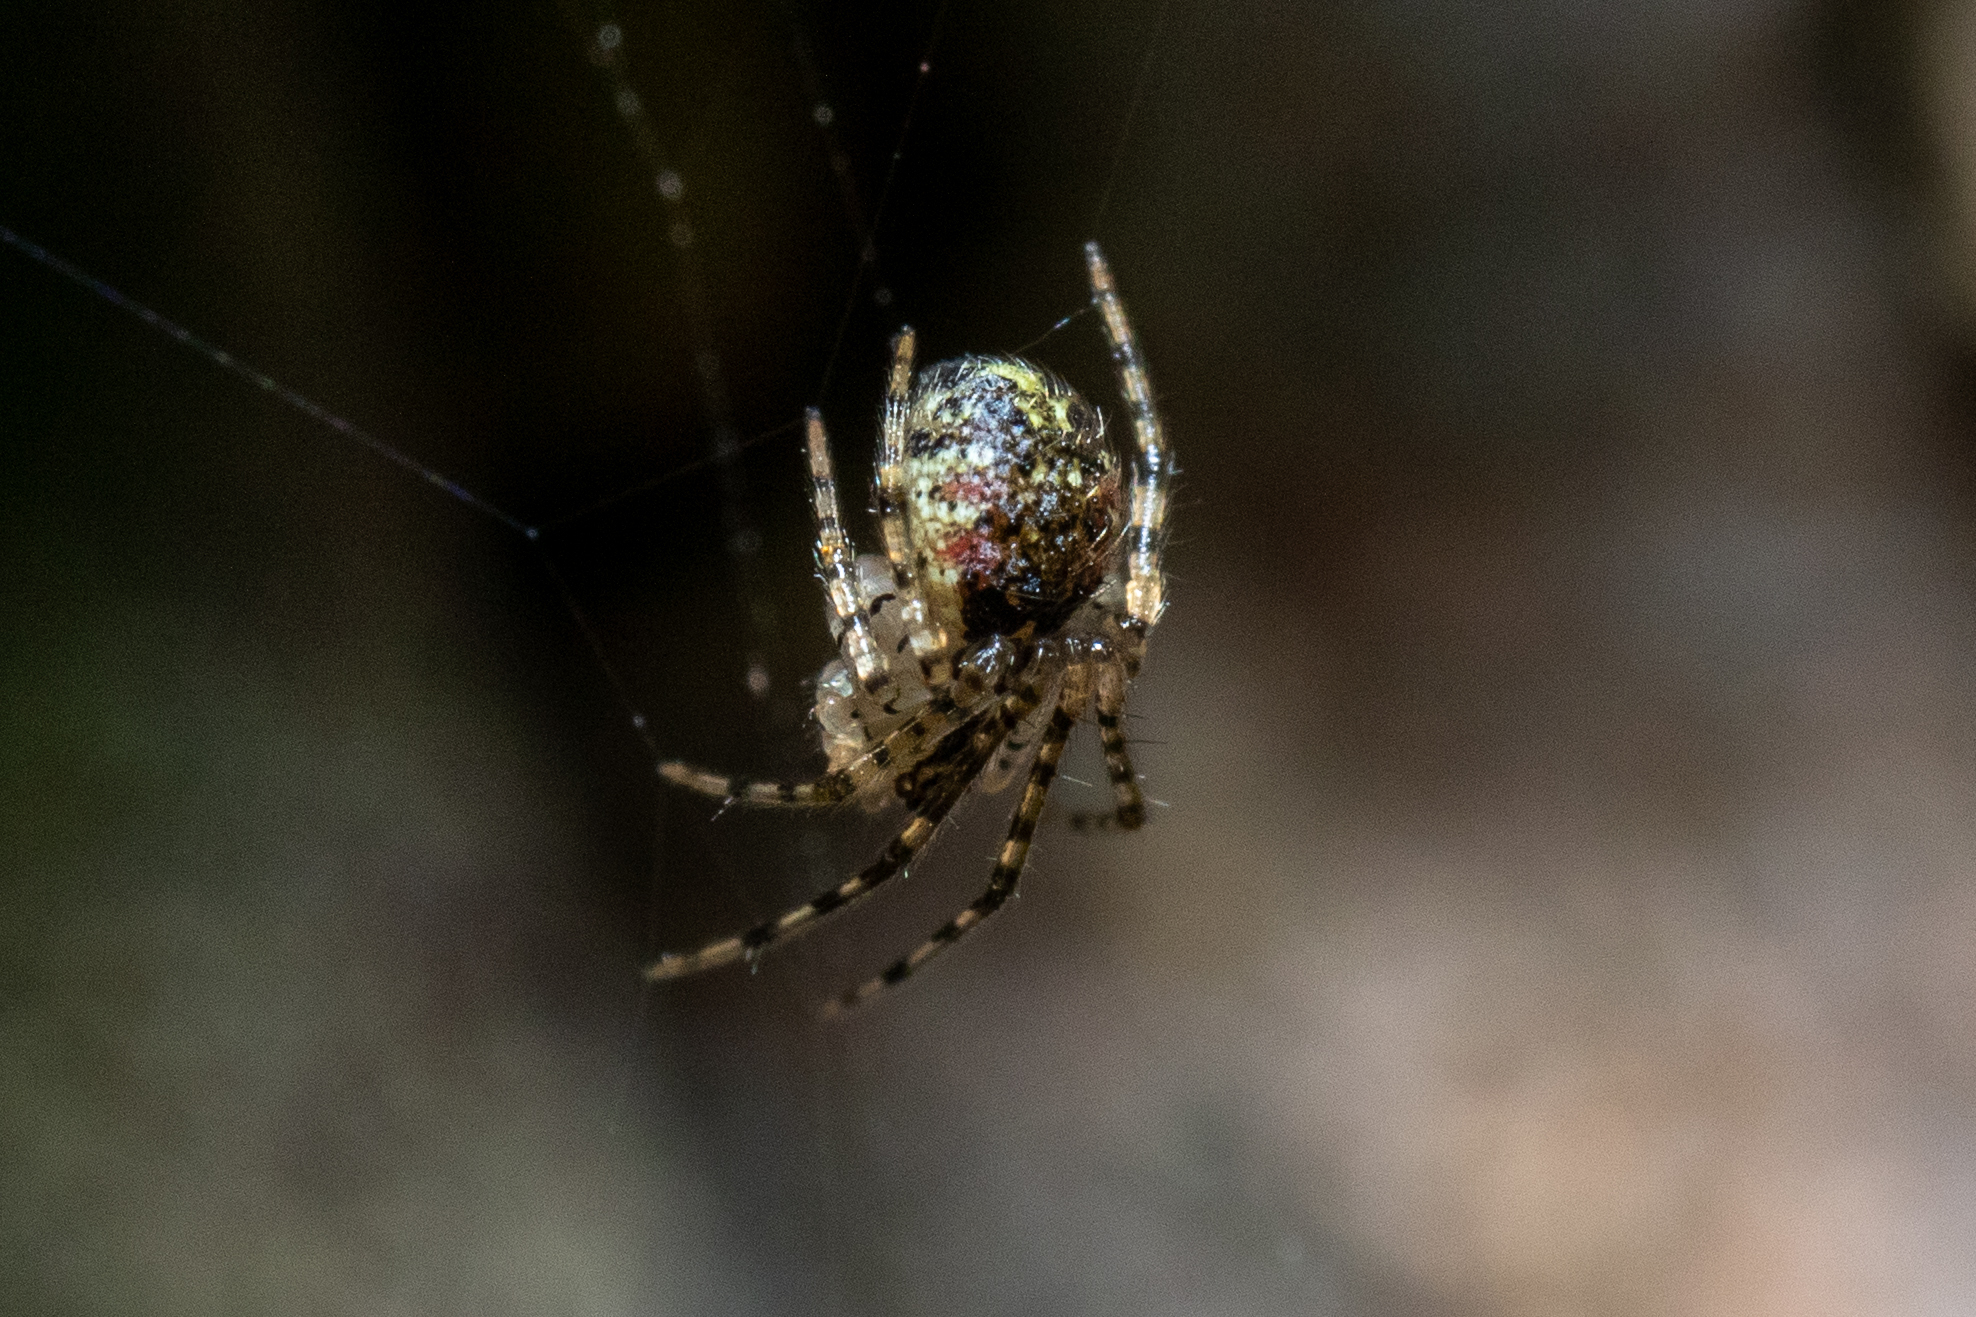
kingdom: Animalia
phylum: Arthropoda
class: Arachnida
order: Araneae
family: Theridiidae
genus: Platnickina
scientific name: Platnickina tincta
